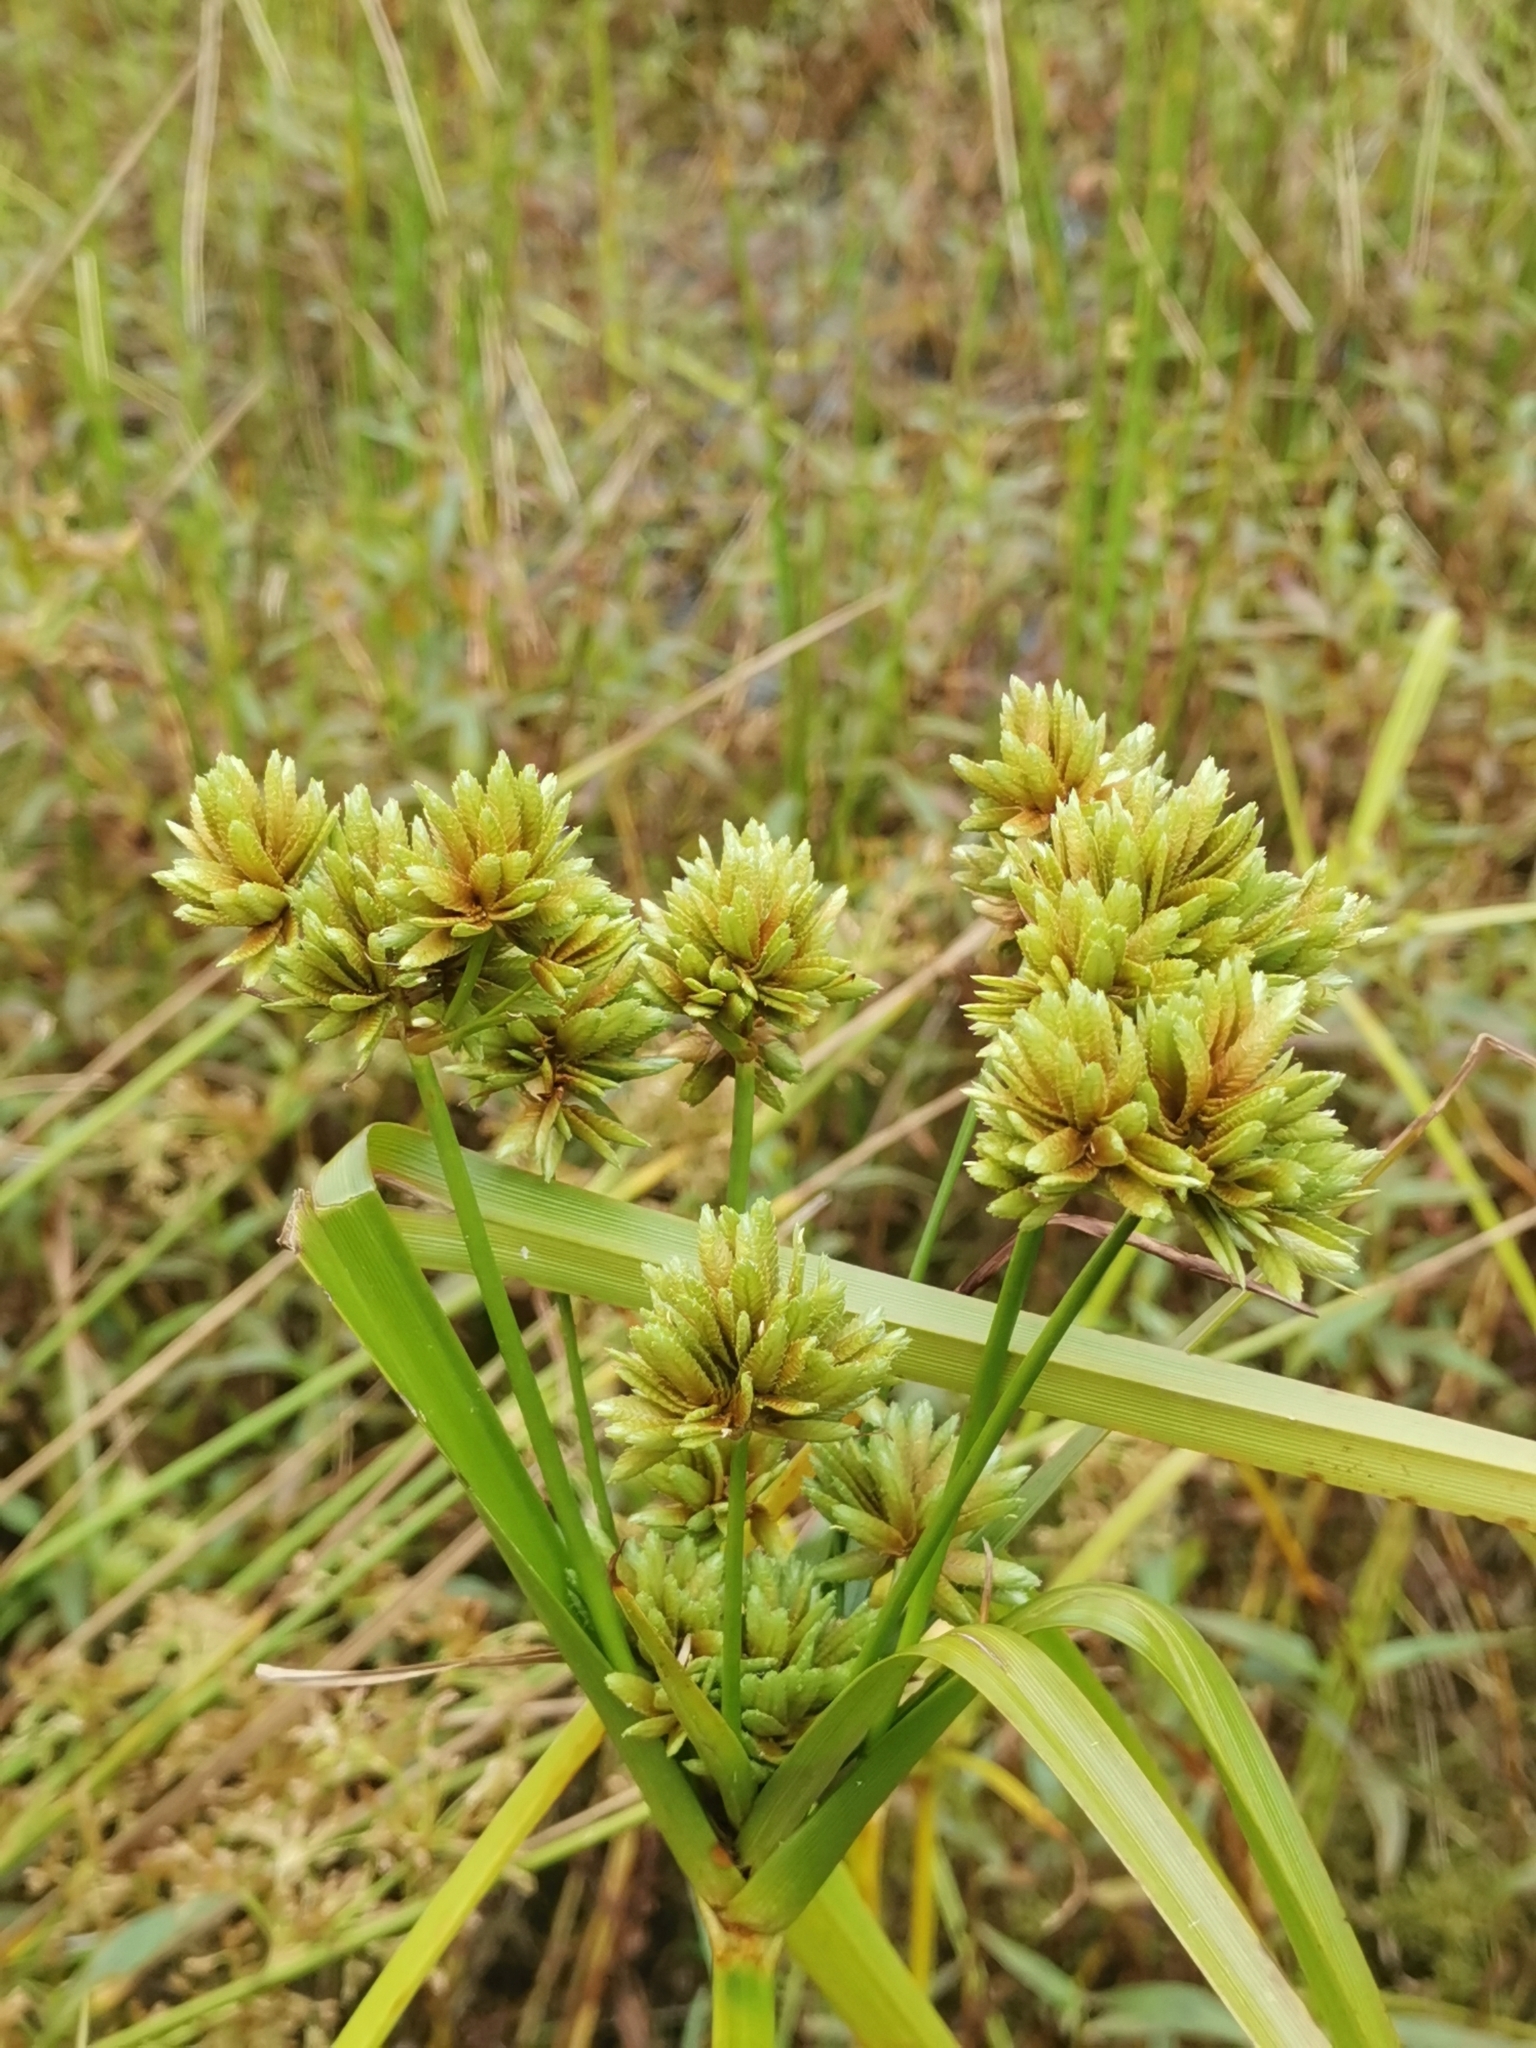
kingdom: Plantae
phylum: Tracheophyta
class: Liliopsida
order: Poales
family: Cyperaceae
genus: Cyperus
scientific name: Cyperus eragrostis
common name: Tall flatsedge
